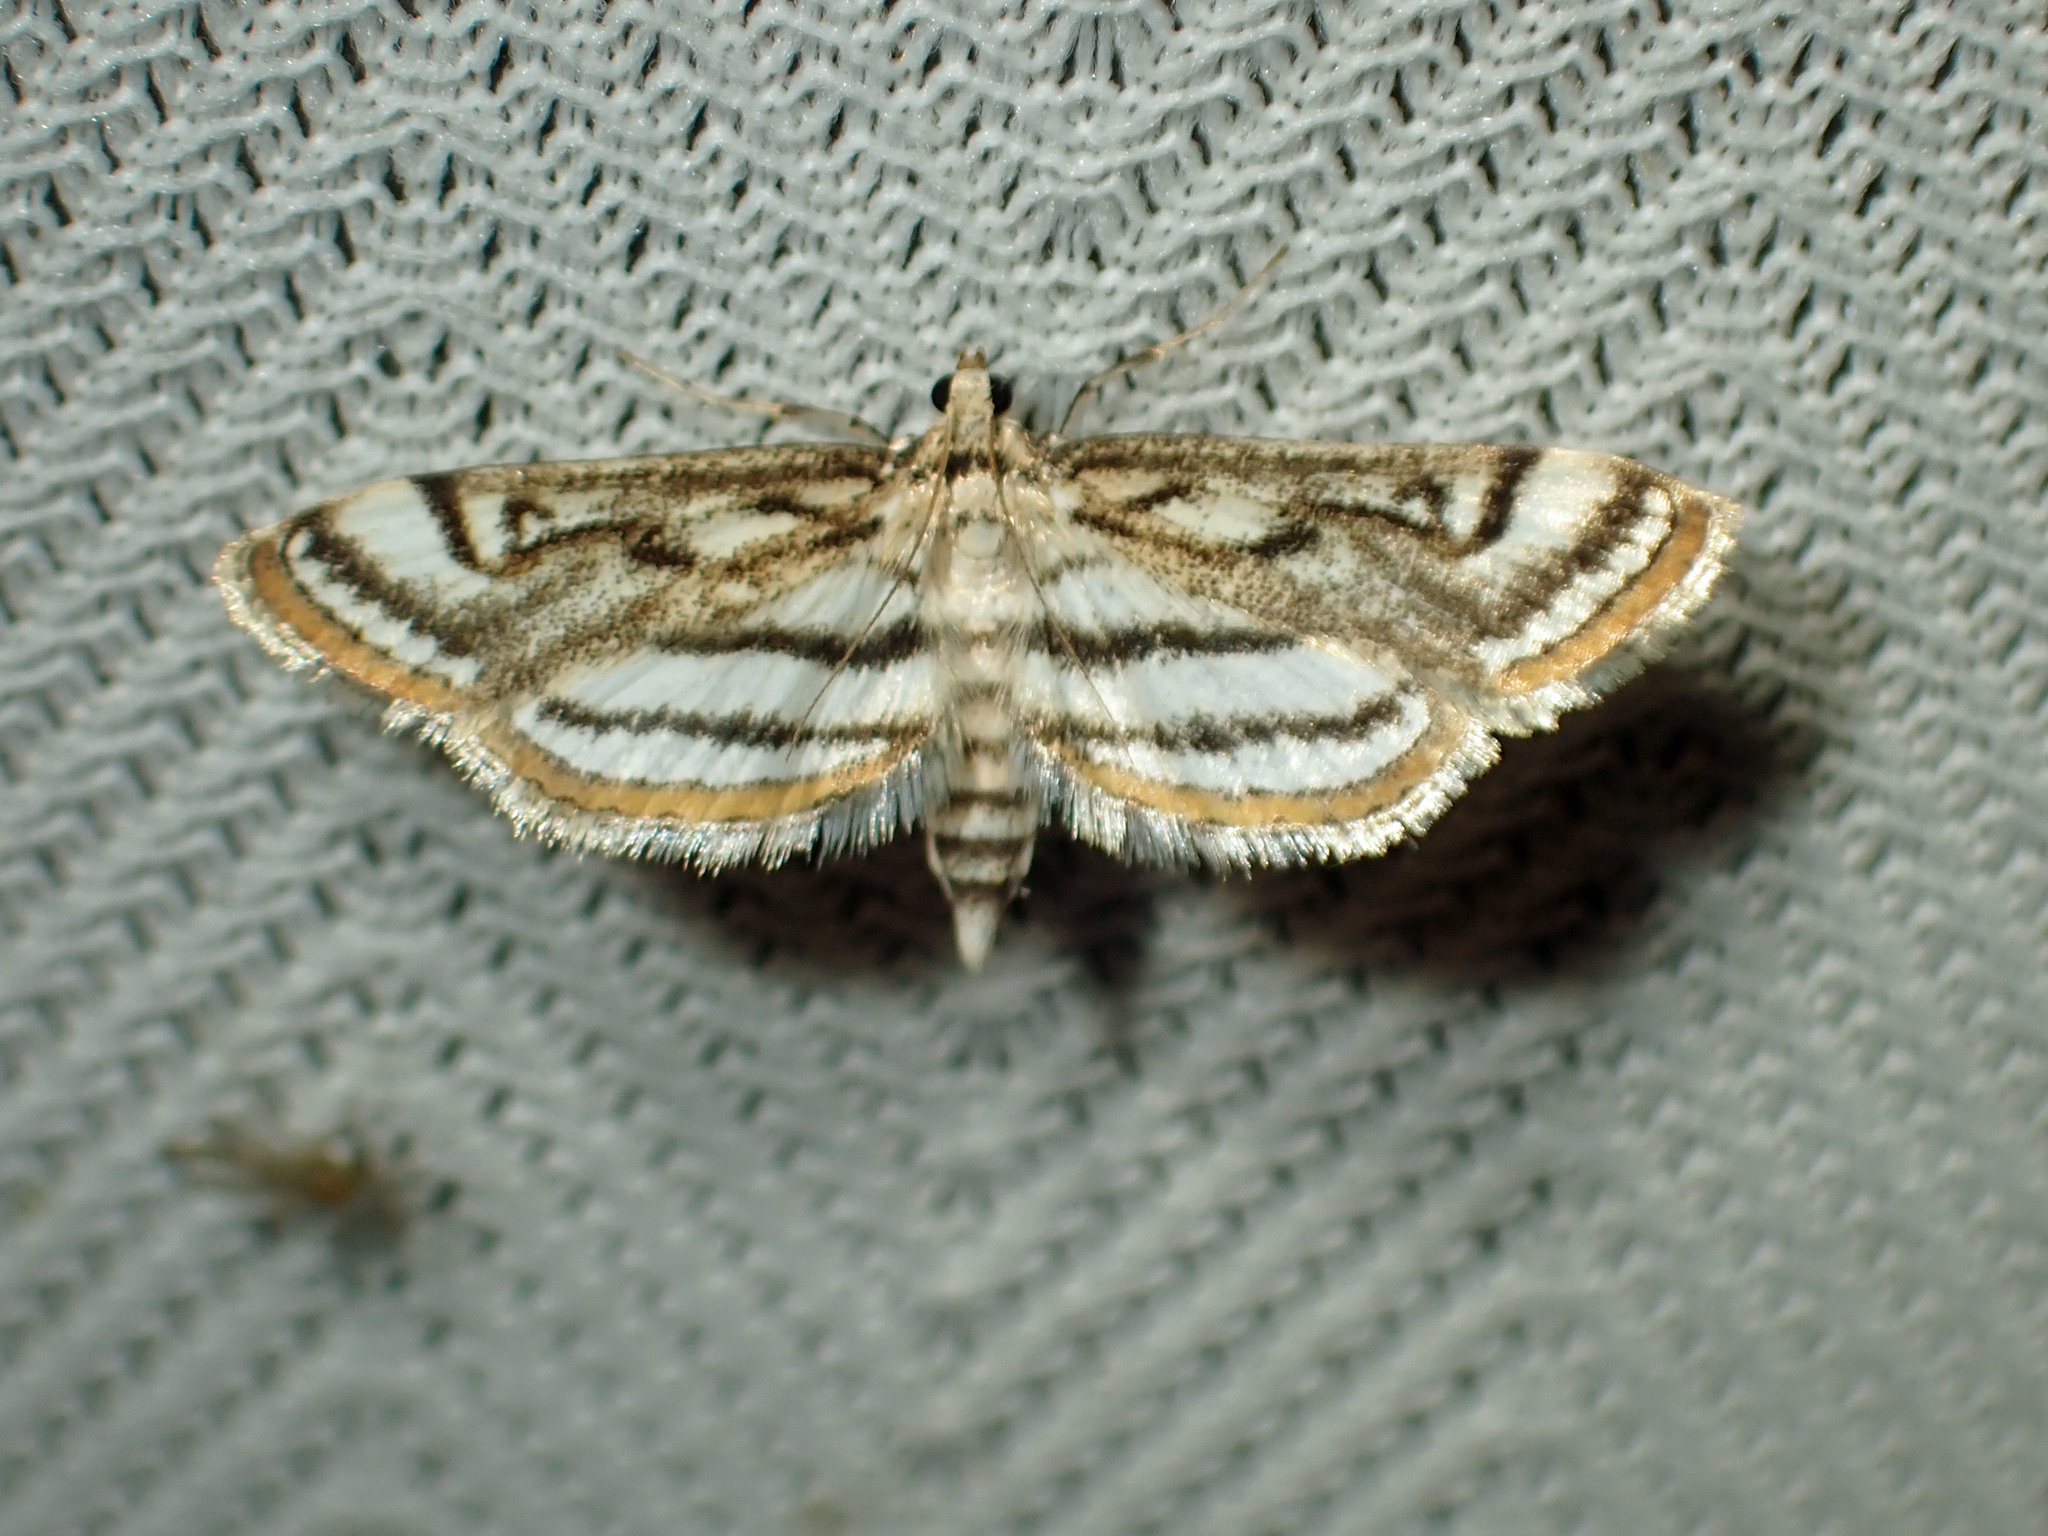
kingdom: Animalia
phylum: Arthropoda
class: Insecta
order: Lepidoptera
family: Crambidae
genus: Parapoynx
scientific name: Parapoynx badiusalis
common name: Chestnut-marked pondweed moth
